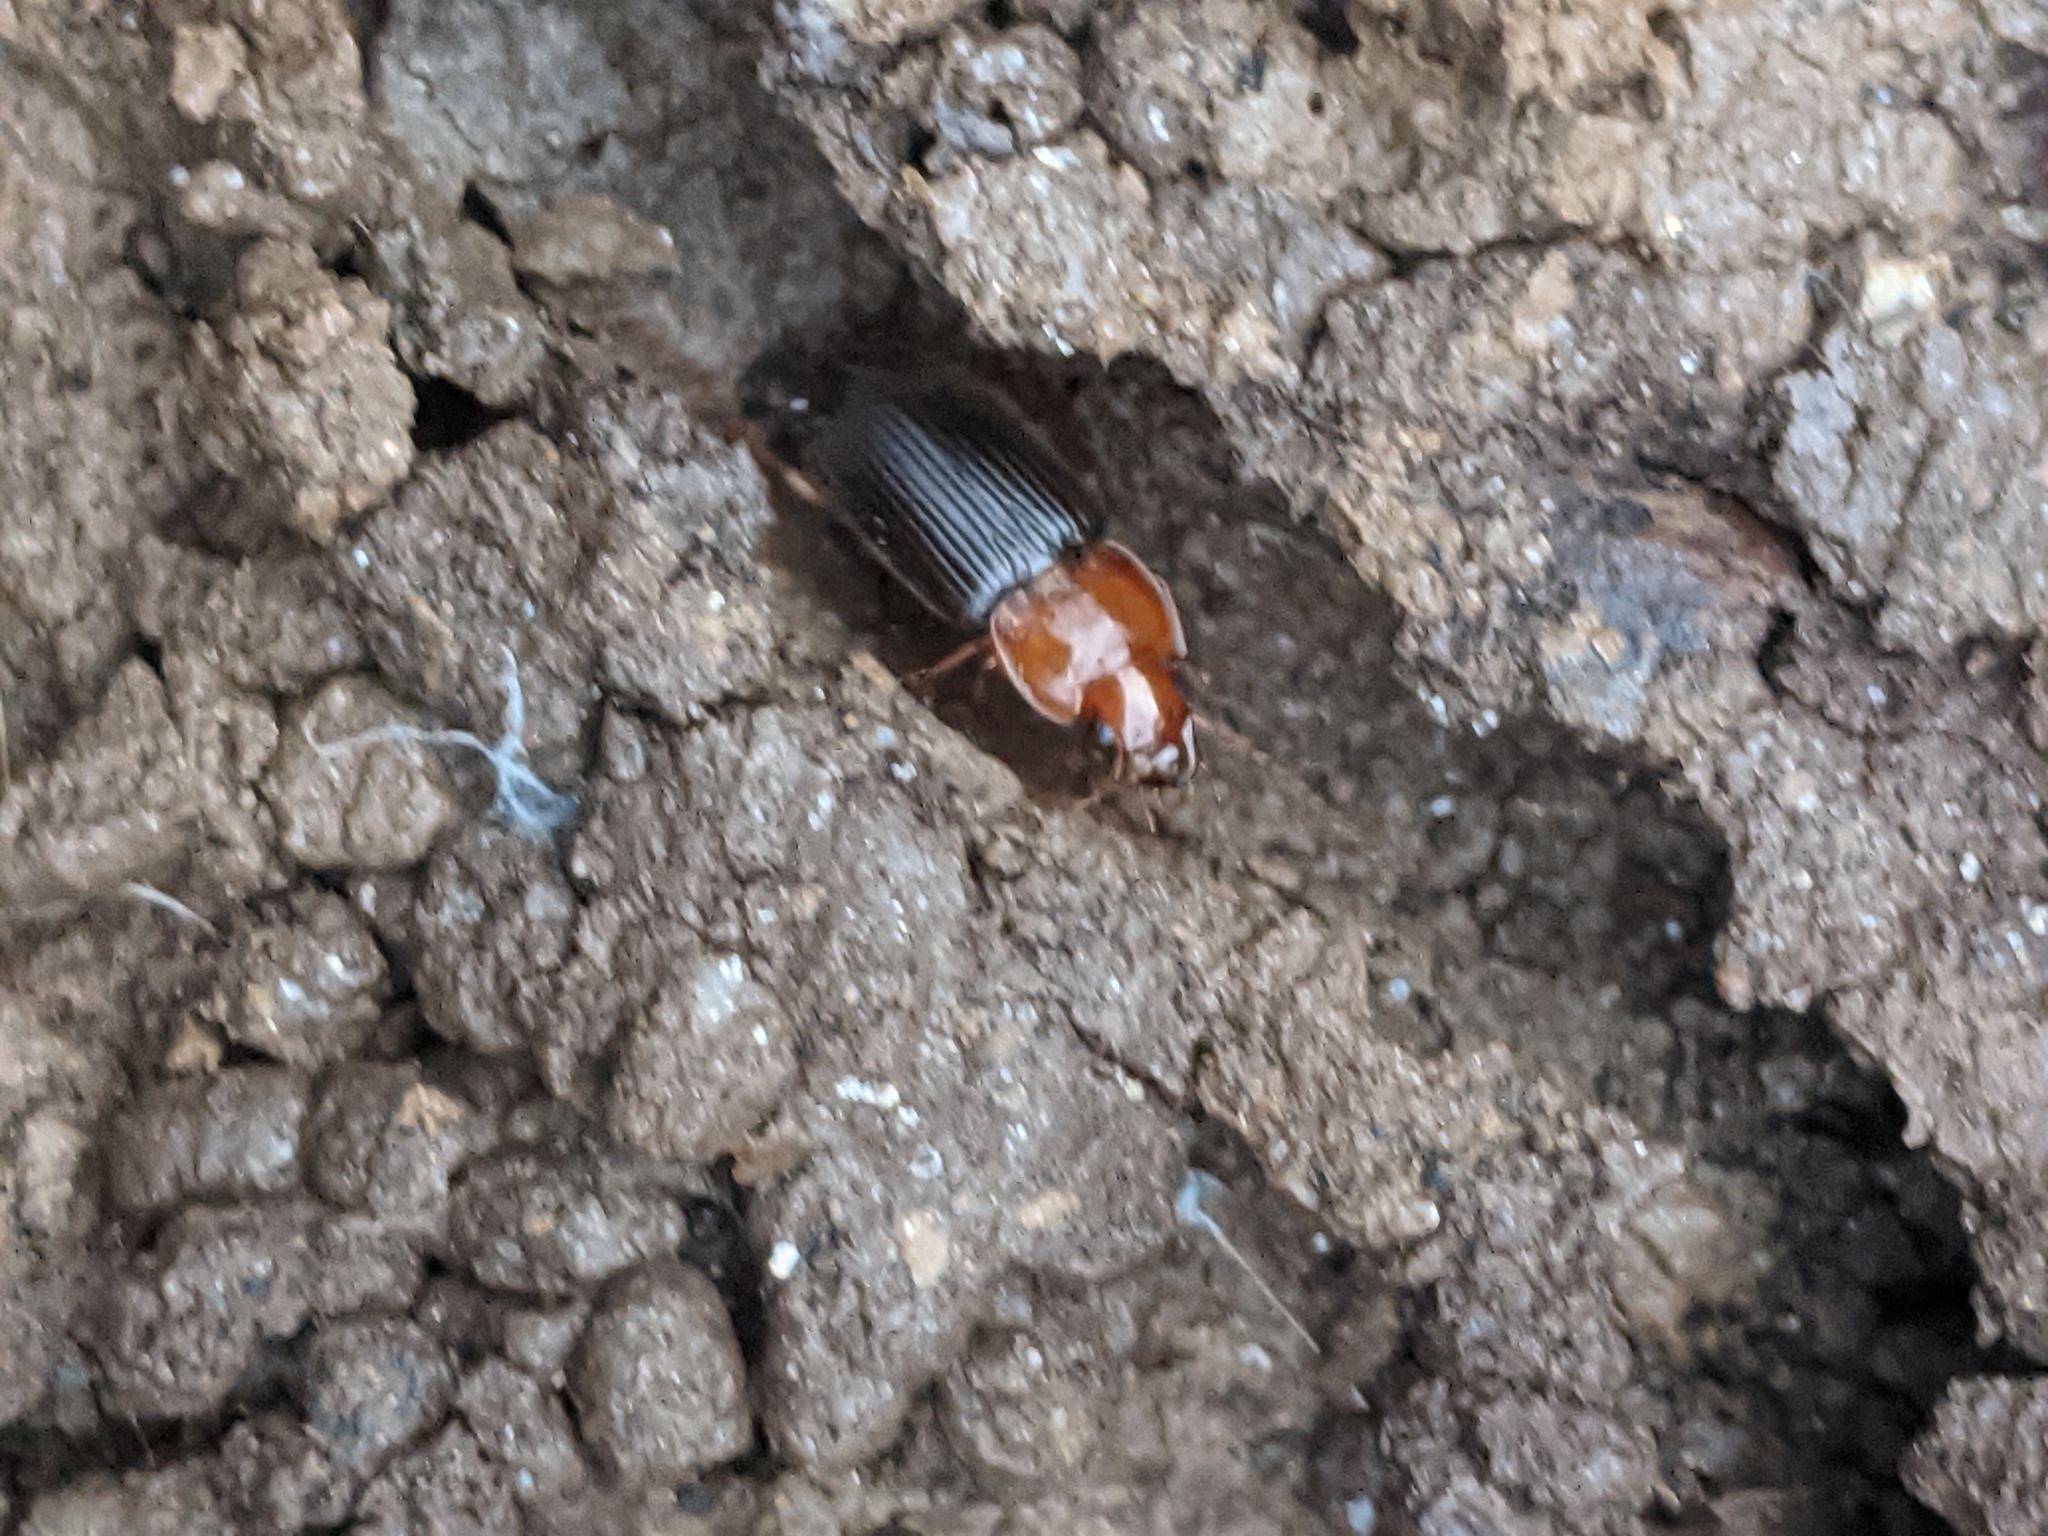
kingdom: Animalia
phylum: Arthropoda
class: Insecta
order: Coleoptera
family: Carabidae
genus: Amphasia
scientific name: Amphasia interstitialis
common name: Red-headed ground beetle
